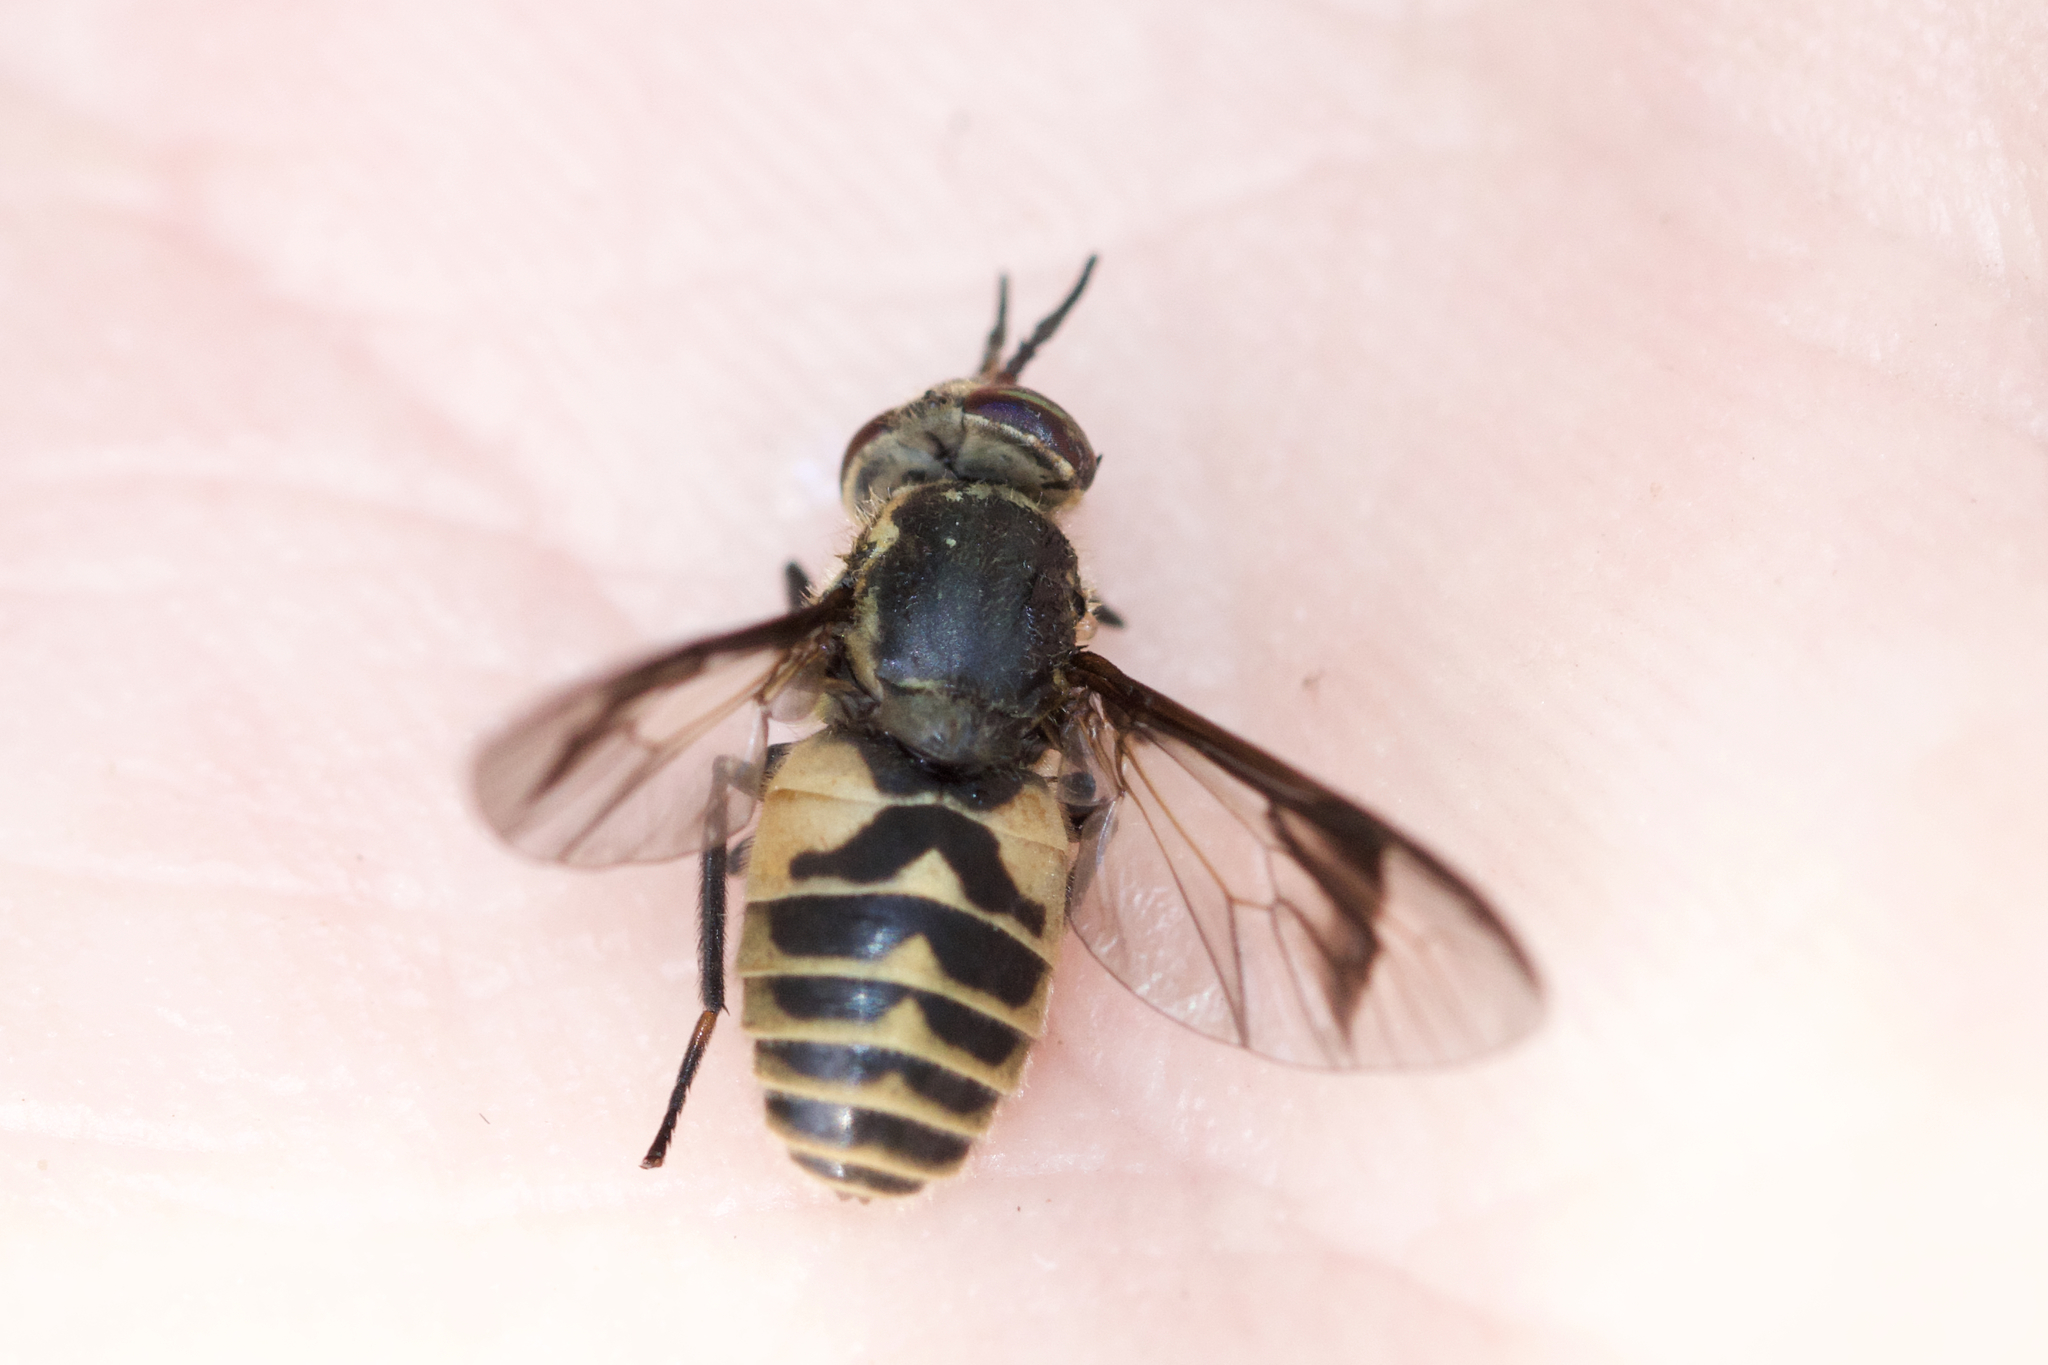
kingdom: Animalia
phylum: Arthropoda
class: Insecta
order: Diptera
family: Tabanidae
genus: Chrysops
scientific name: Chrysops delicatulus
